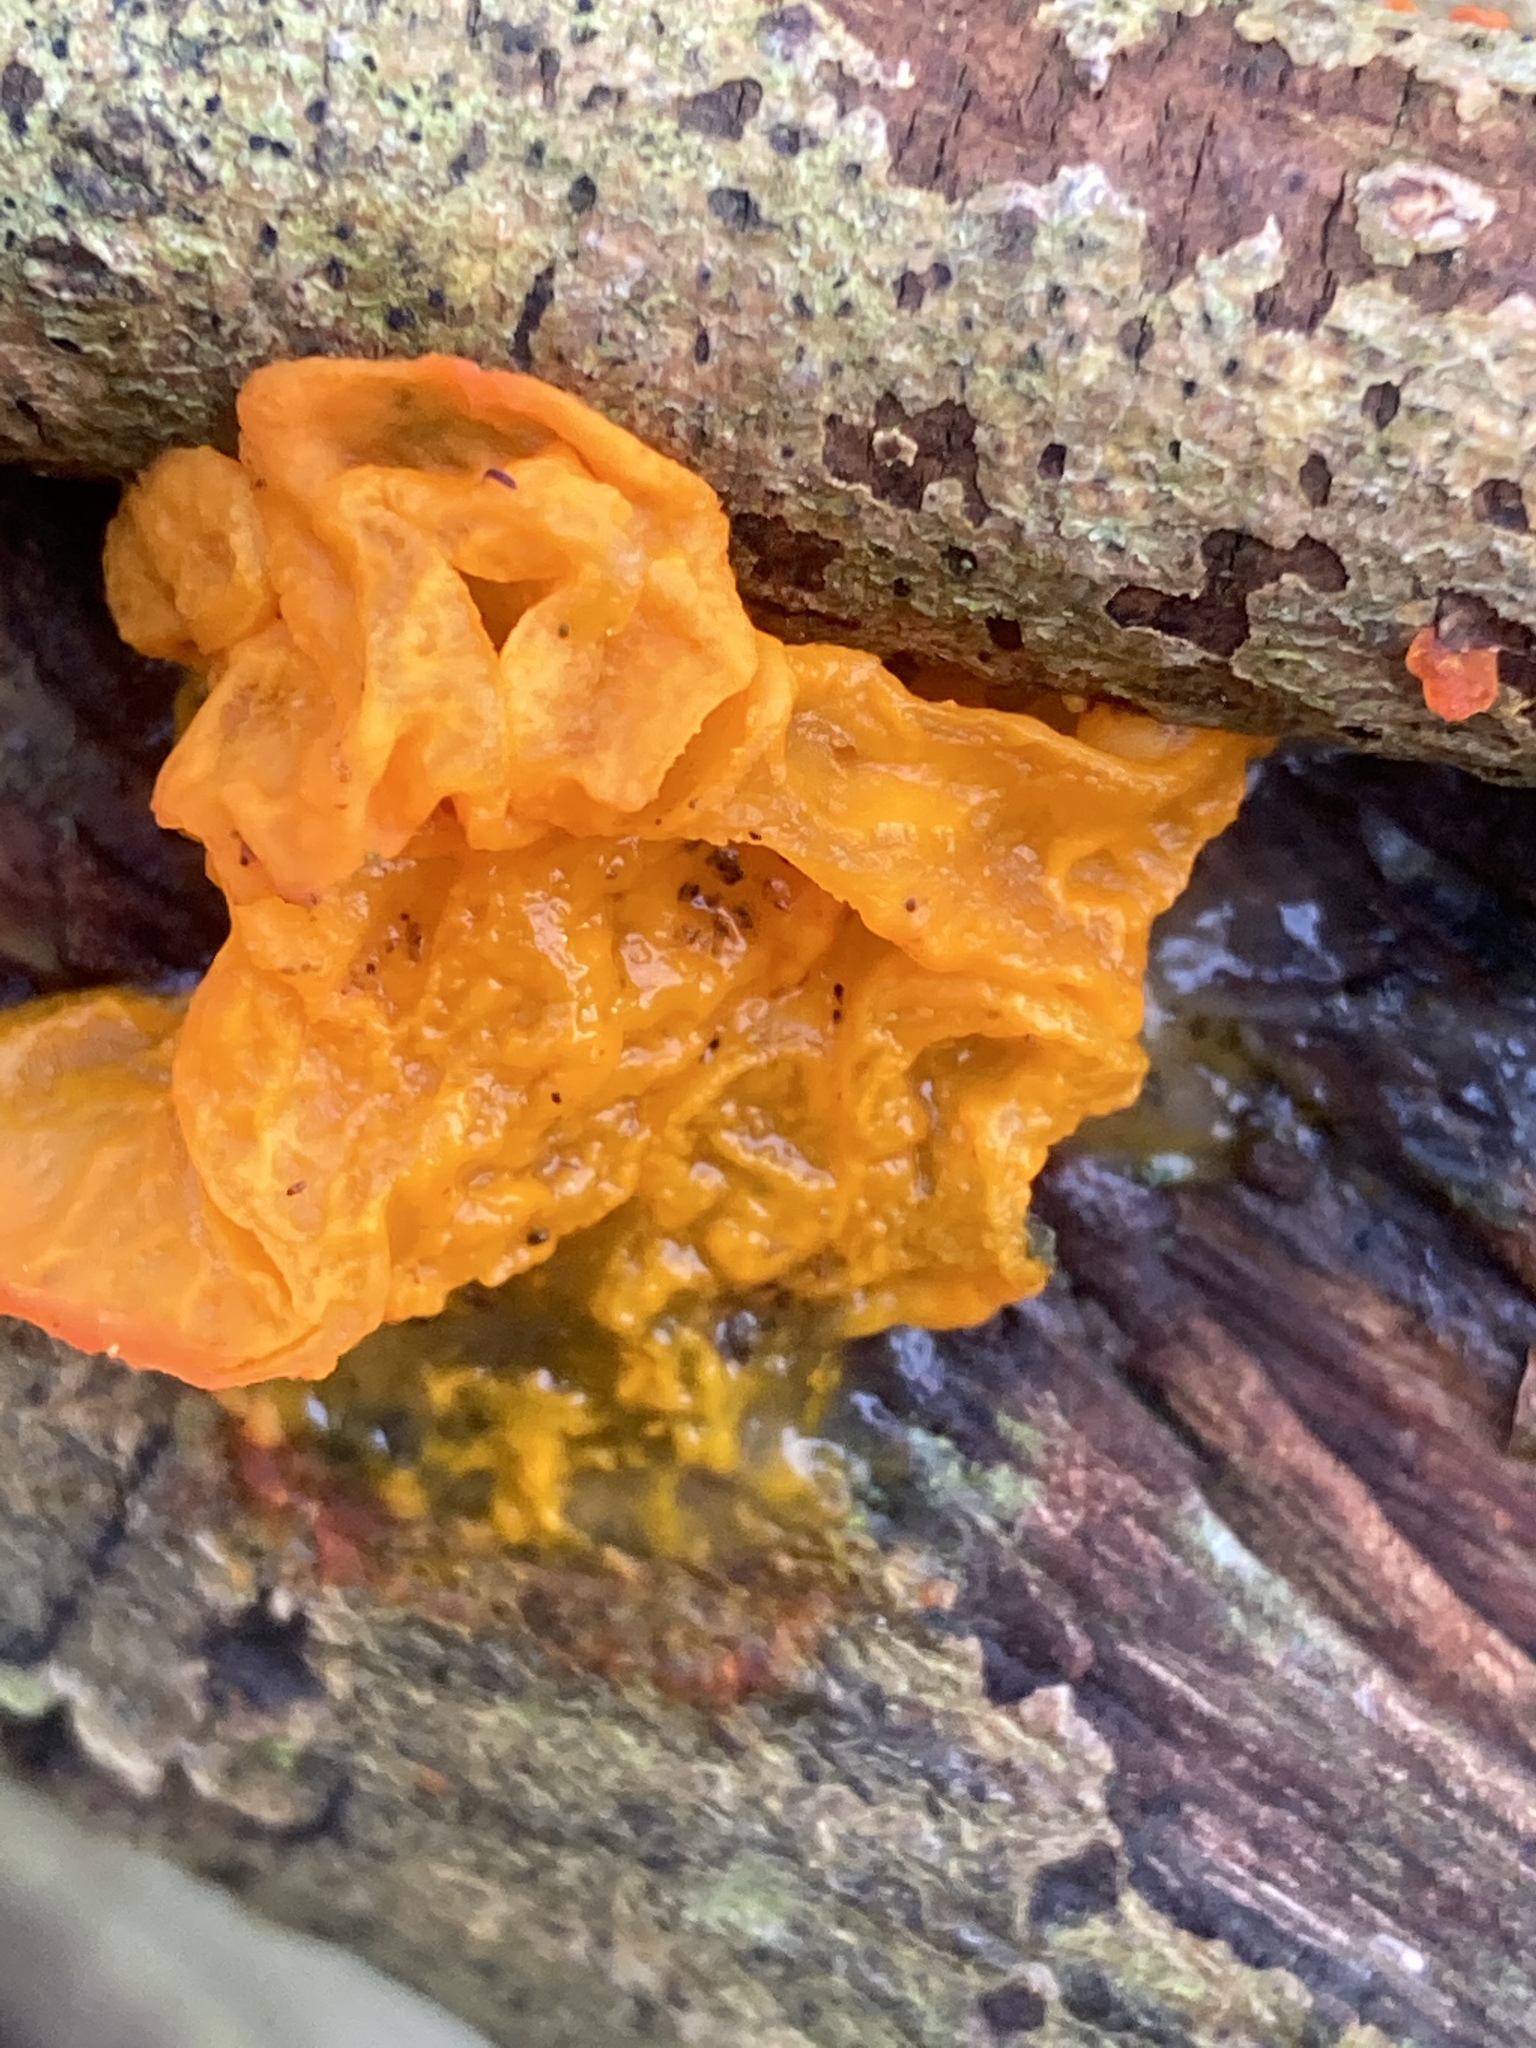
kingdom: Fungi
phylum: Basidiomycota
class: Tremellomycetes
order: Tremellales
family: Tremellaceae
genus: Tremella
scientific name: Tremella mesenterica
